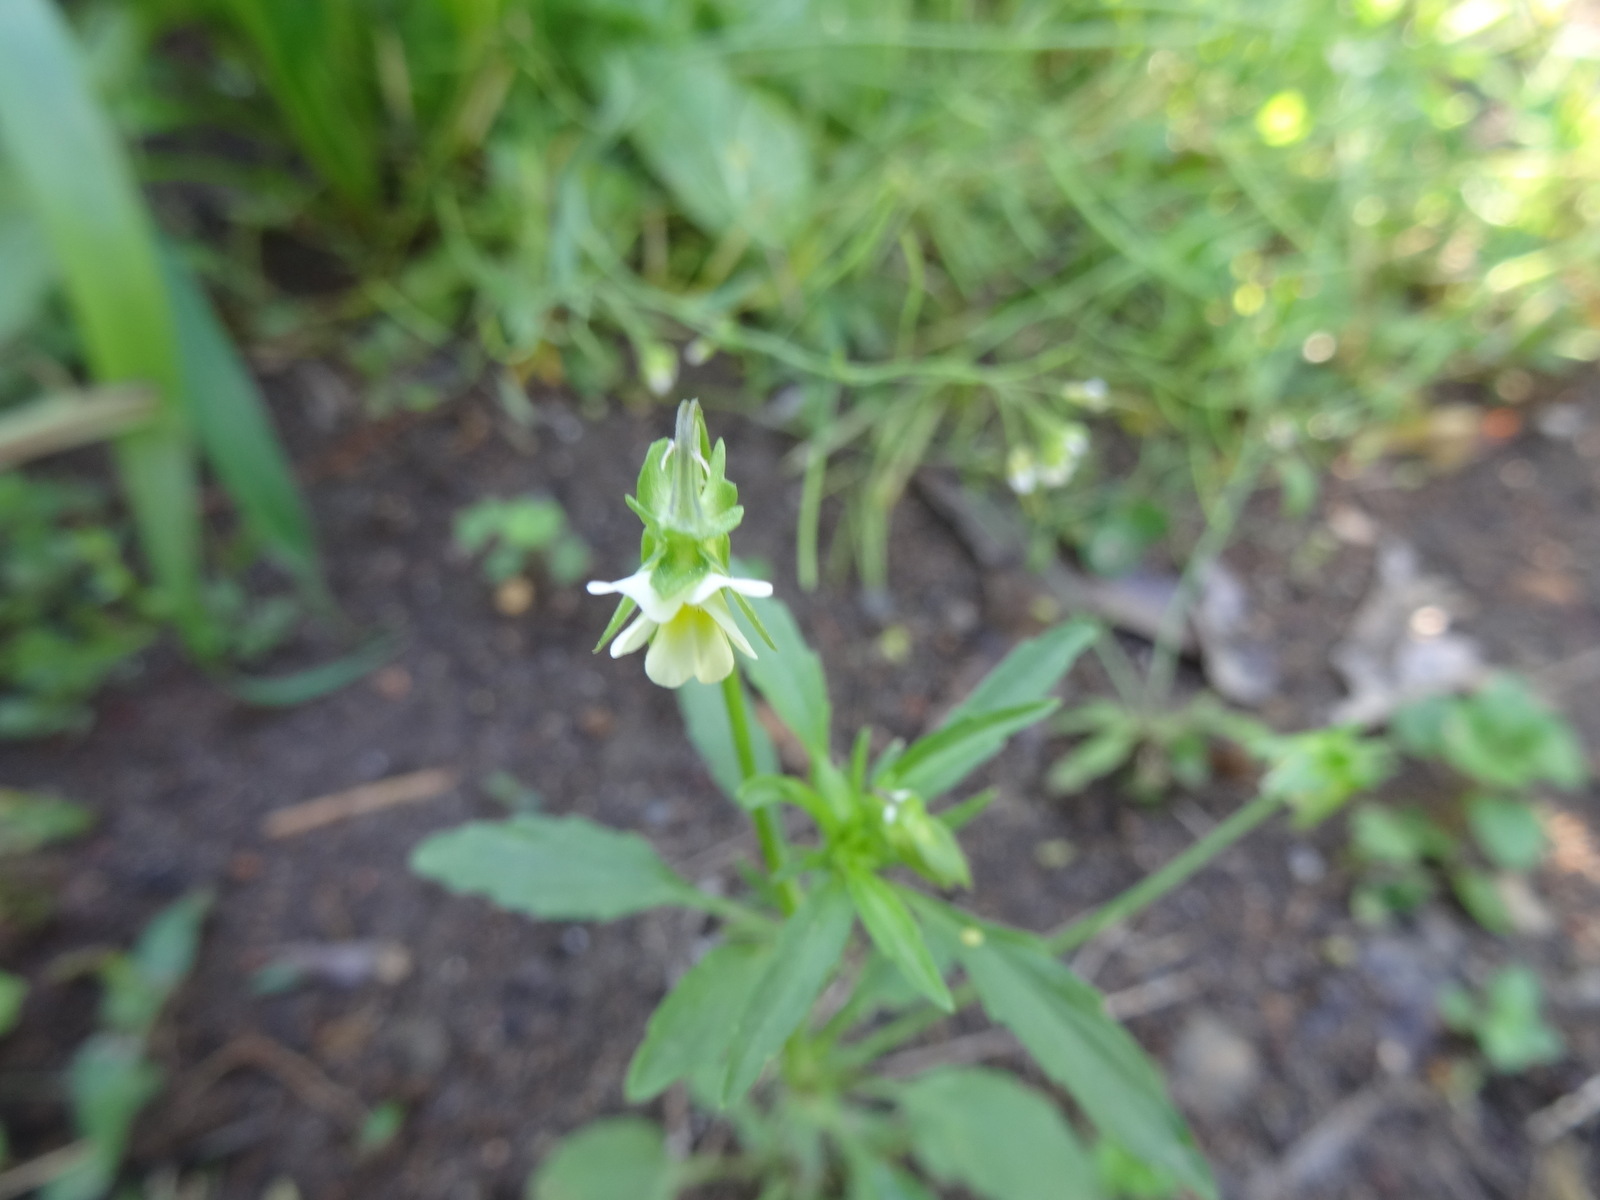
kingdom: Plantae
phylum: Tracheophyta
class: Magnoliopsida
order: Malpighiales
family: Violaceae
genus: Viola
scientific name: Viola arvensis
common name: Field pansy
